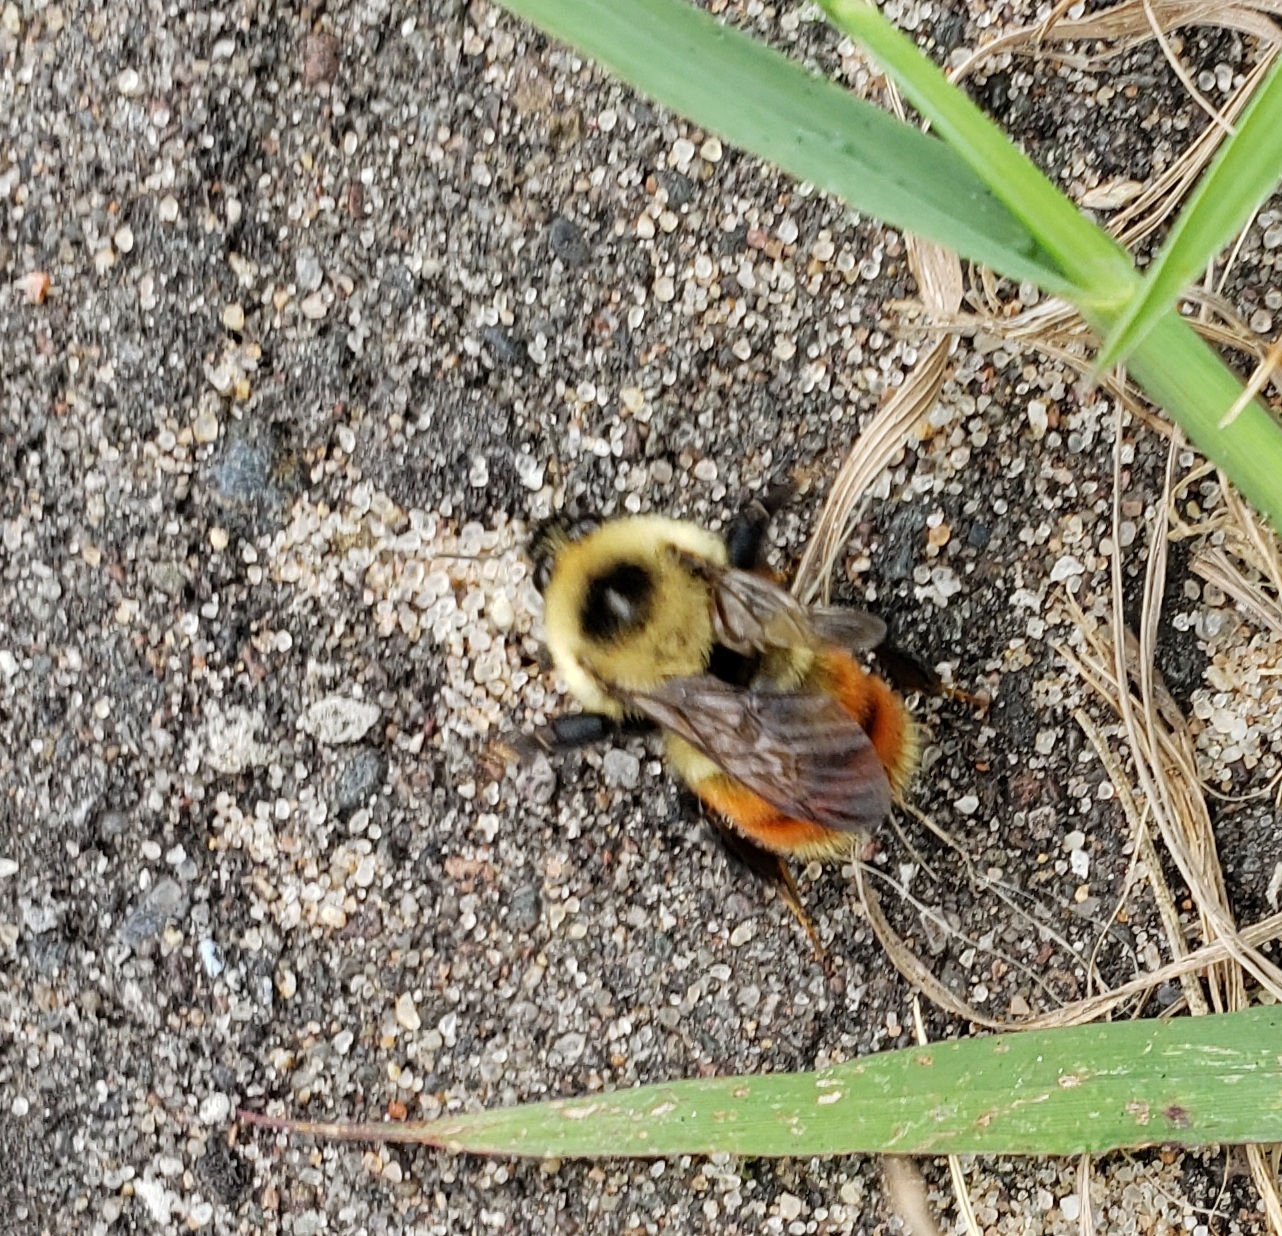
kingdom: Animalia
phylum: Arthropoda
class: Insecta
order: Hymenoptera
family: Apidae
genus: Bombus
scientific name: Bombus rufocinctus
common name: Red-belted bumble bee
